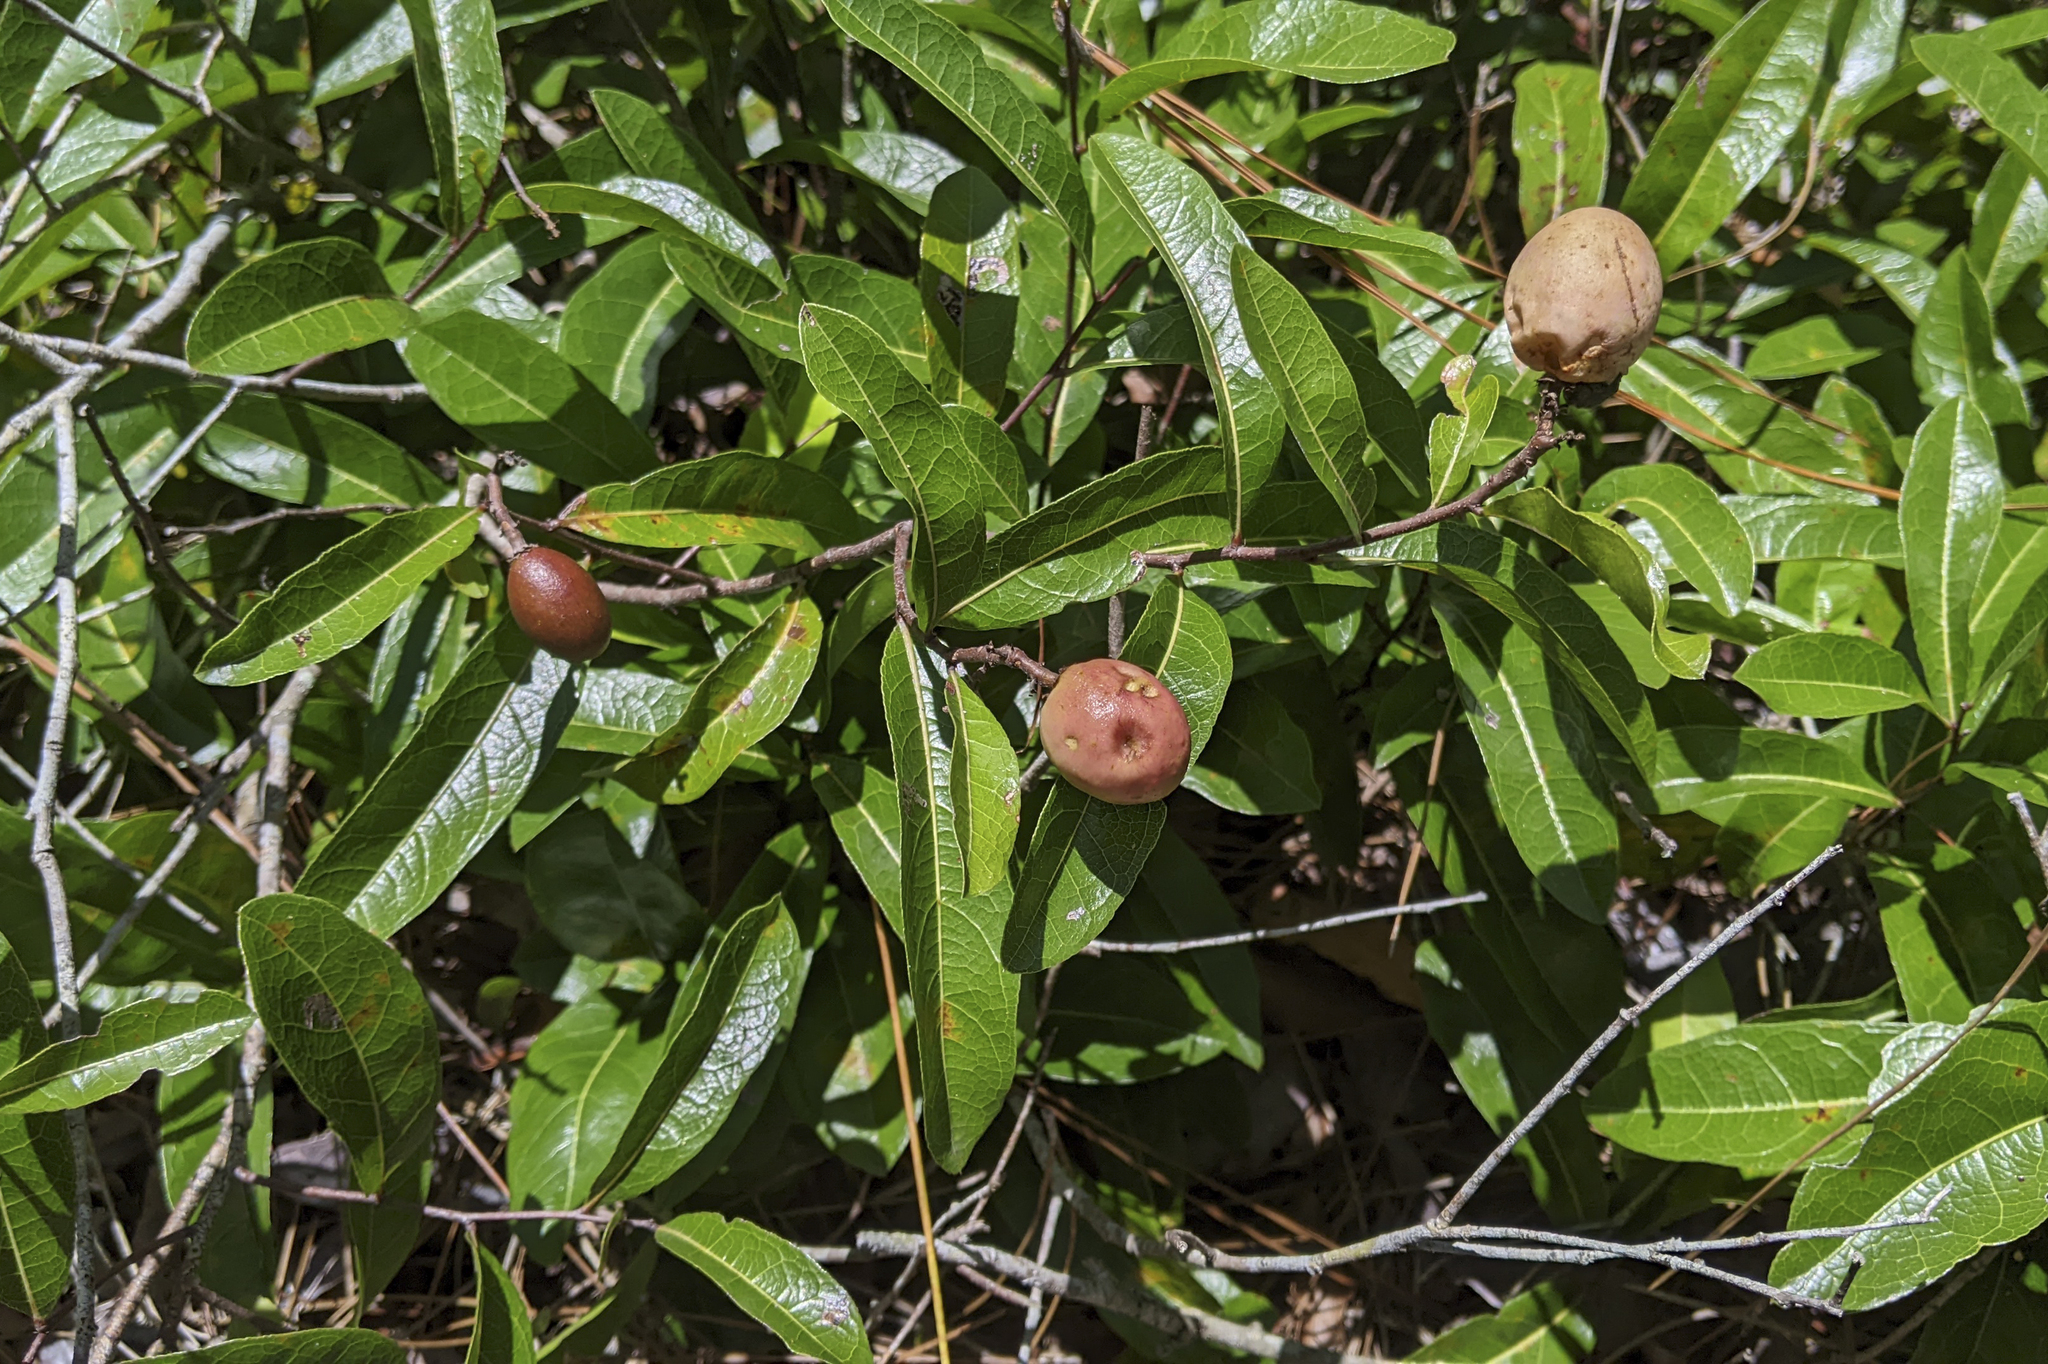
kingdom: Plantae
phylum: Tracheophyta
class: Magnoliopsida
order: Malpighiales
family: Chrysobalanaceae
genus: Geobalanus
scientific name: Geobalanus oblongifolius
